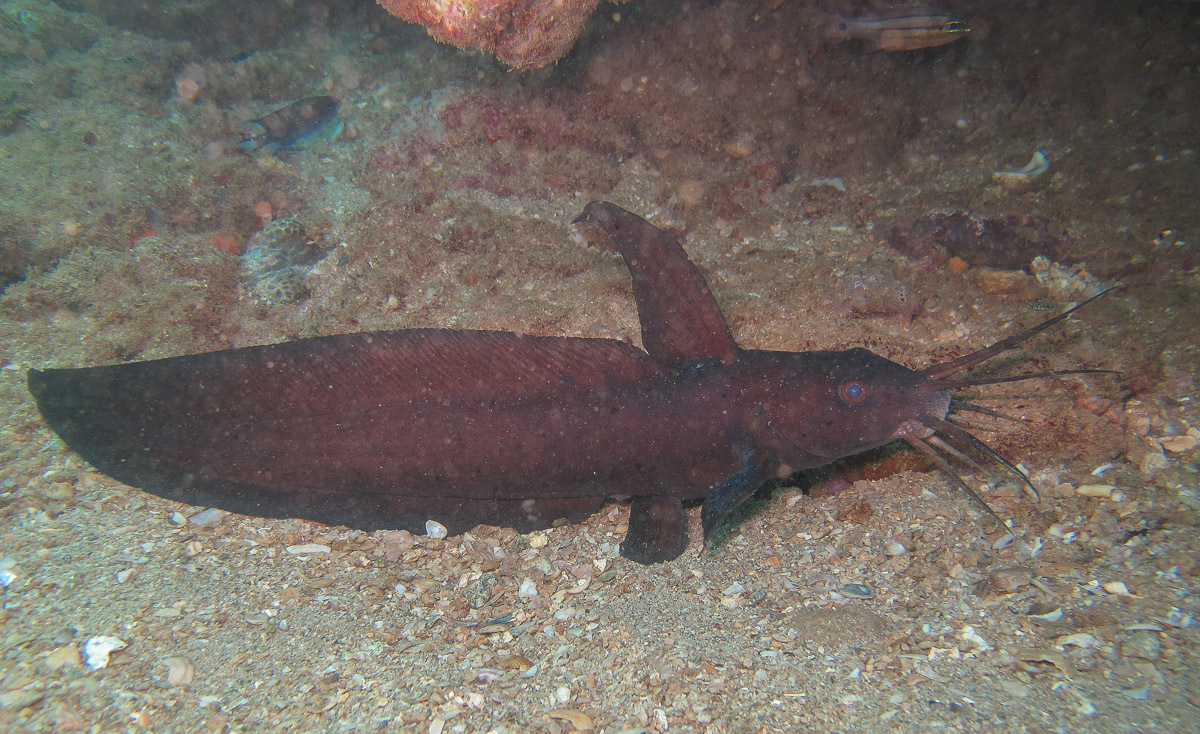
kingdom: Animalia
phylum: Chordata
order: Siluriformes
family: Plotosidae
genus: Paraplotosus
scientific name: Paraplotosus butleri
